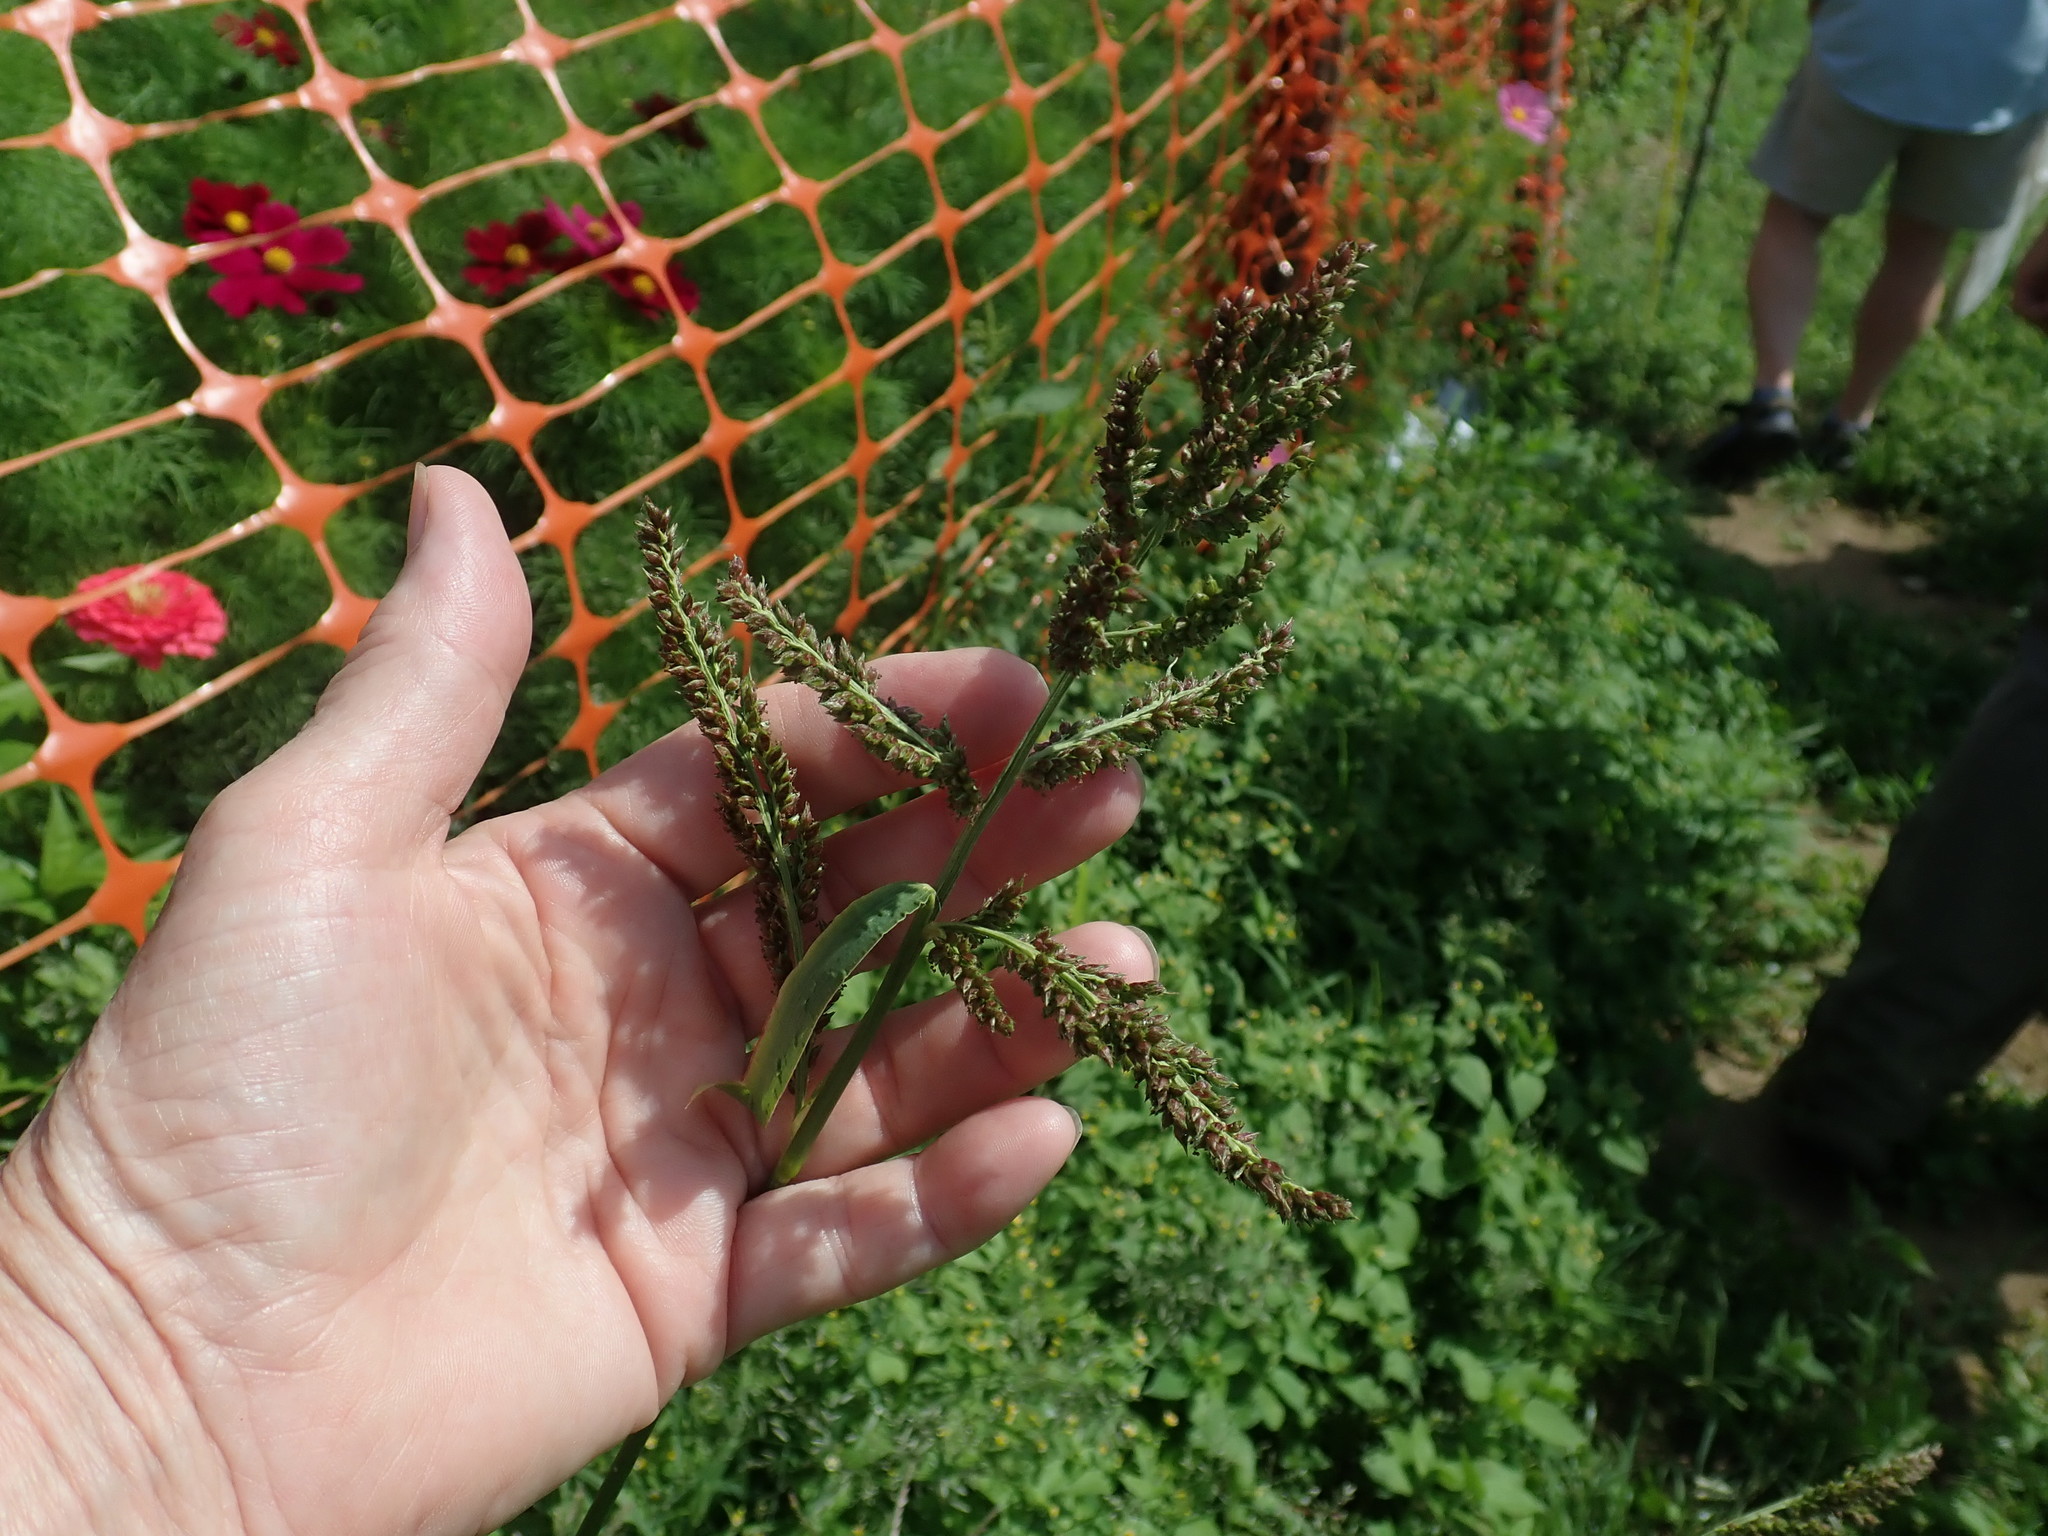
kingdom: Plantae
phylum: Tracheophyta
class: Liliopsida
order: Poales
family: Poaceae
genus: Echinochloa
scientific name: Echinochloa crus-galli
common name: Cockspur
